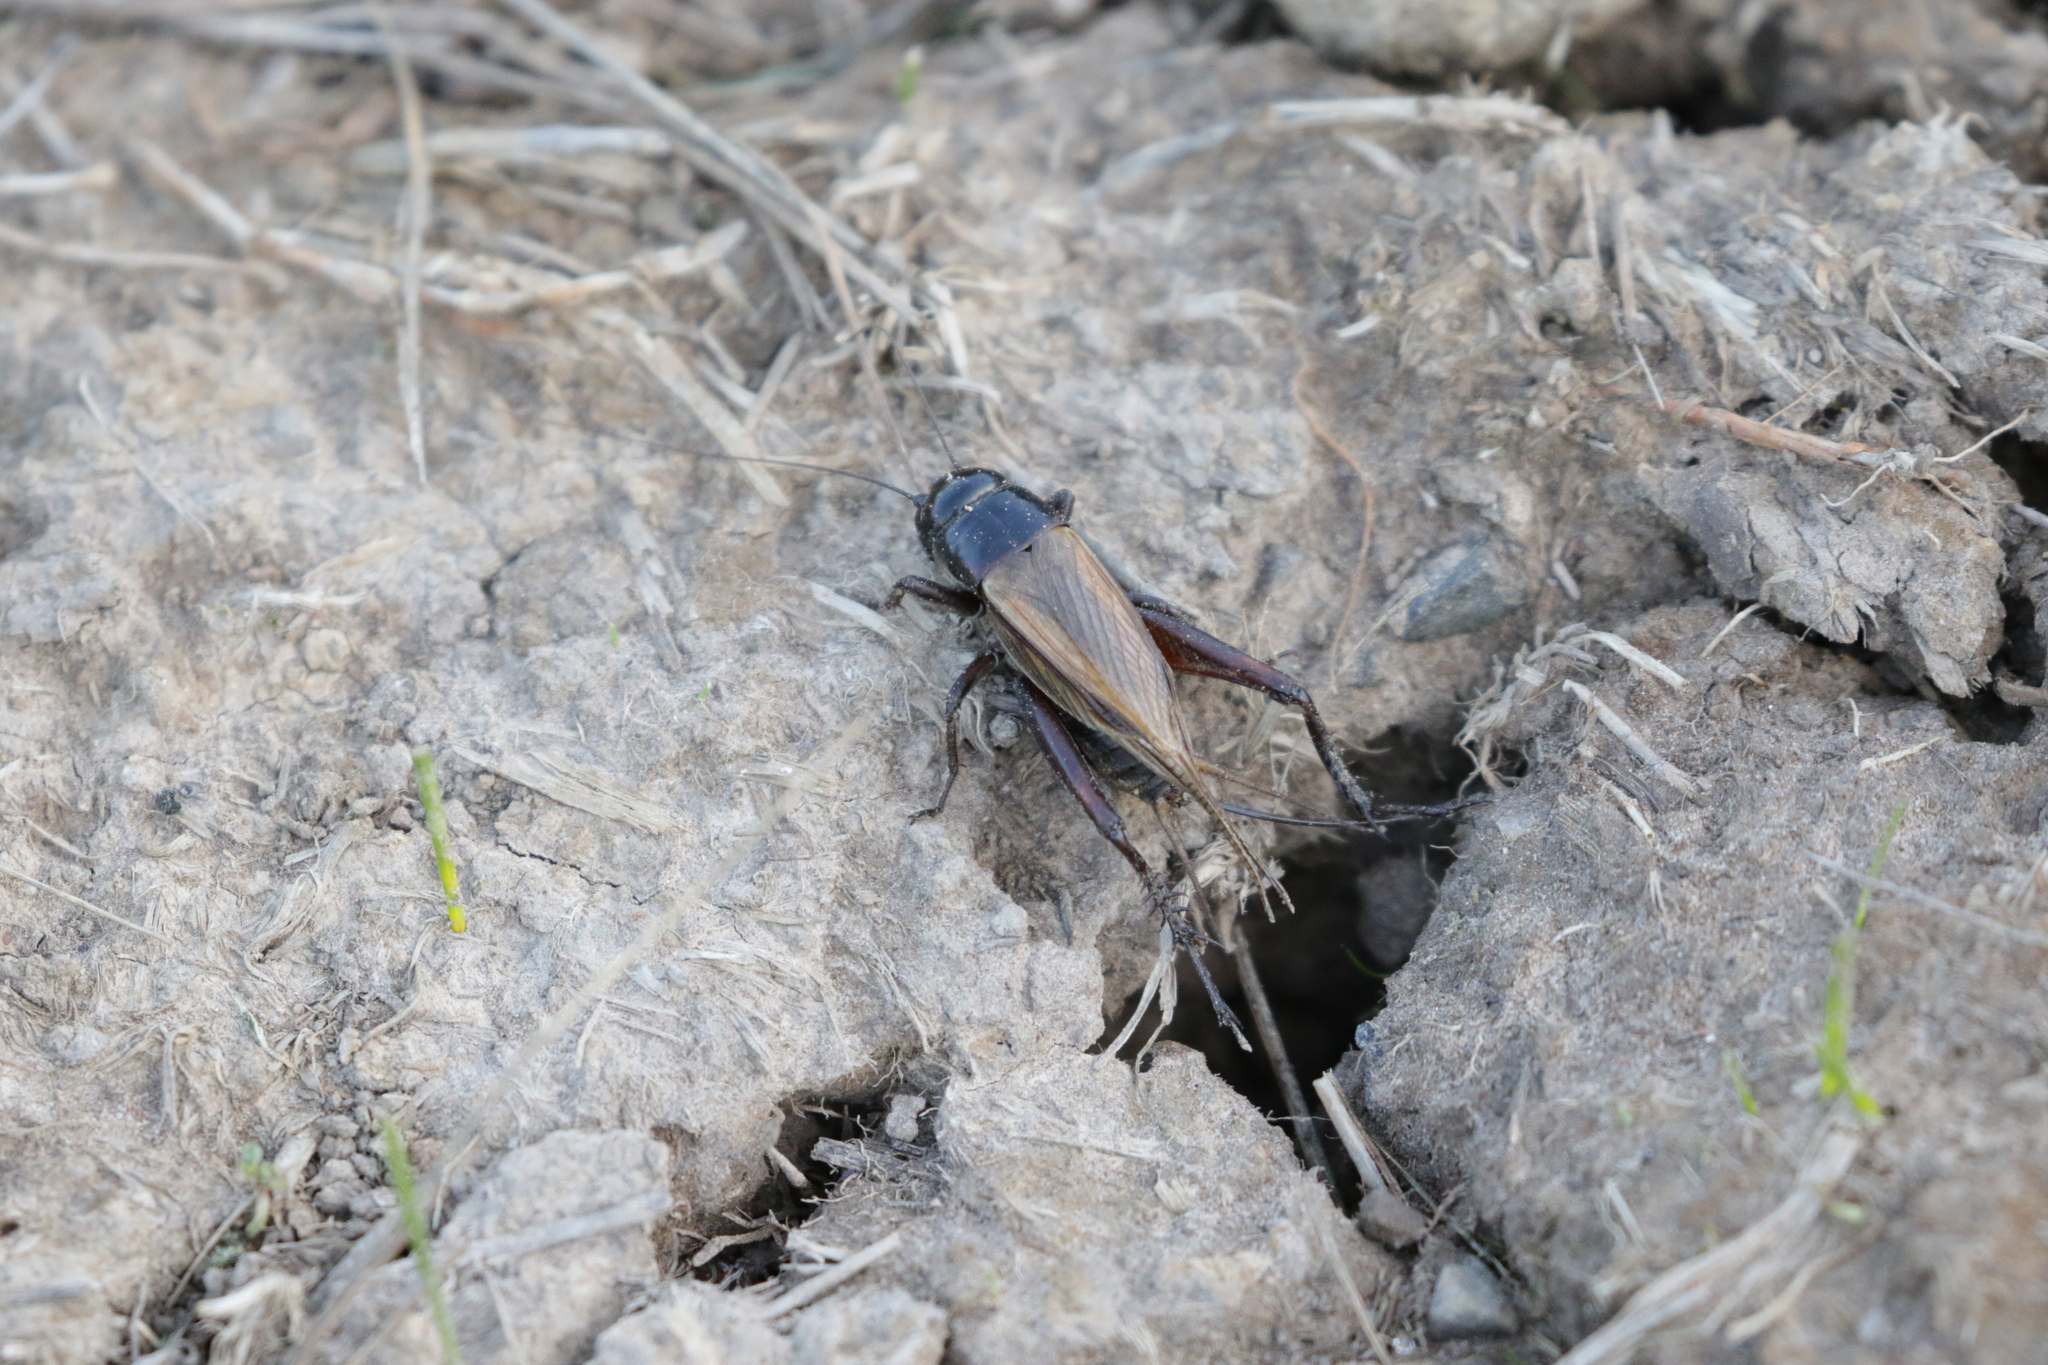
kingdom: Animalia
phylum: Arthropoda
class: Insecta
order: Orthoptera
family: Gryllidae
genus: Teleogryllus
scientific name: Teleogryllus commodus
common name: Black field cricket
